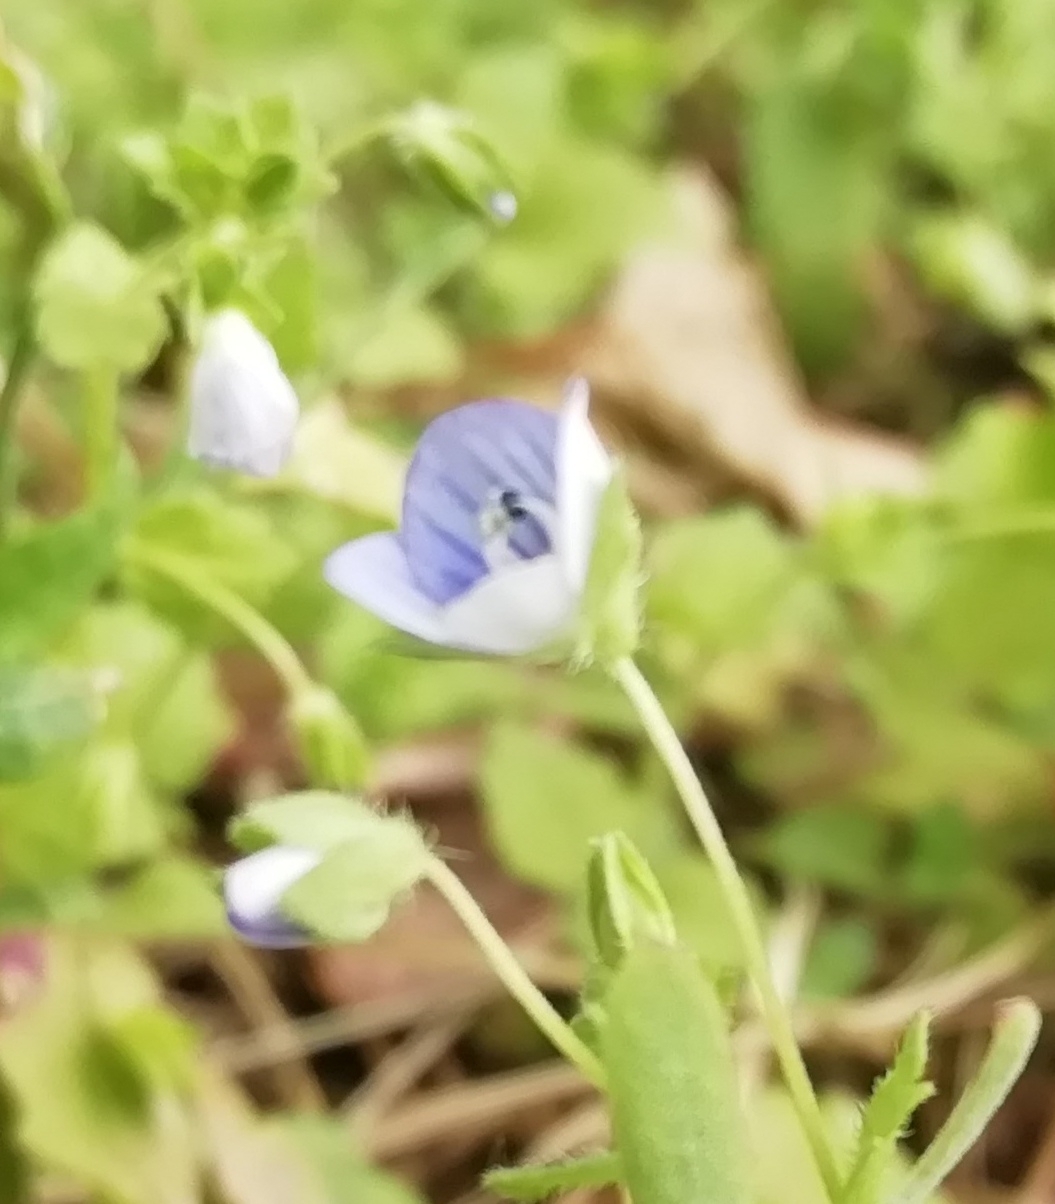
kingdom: Plantae
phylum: Tracheophyta
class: Magnoliopsida
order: Lamiales
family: Plantaginaceae
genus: Veronica
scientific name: Veronica persica
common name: Common field-speedwell
